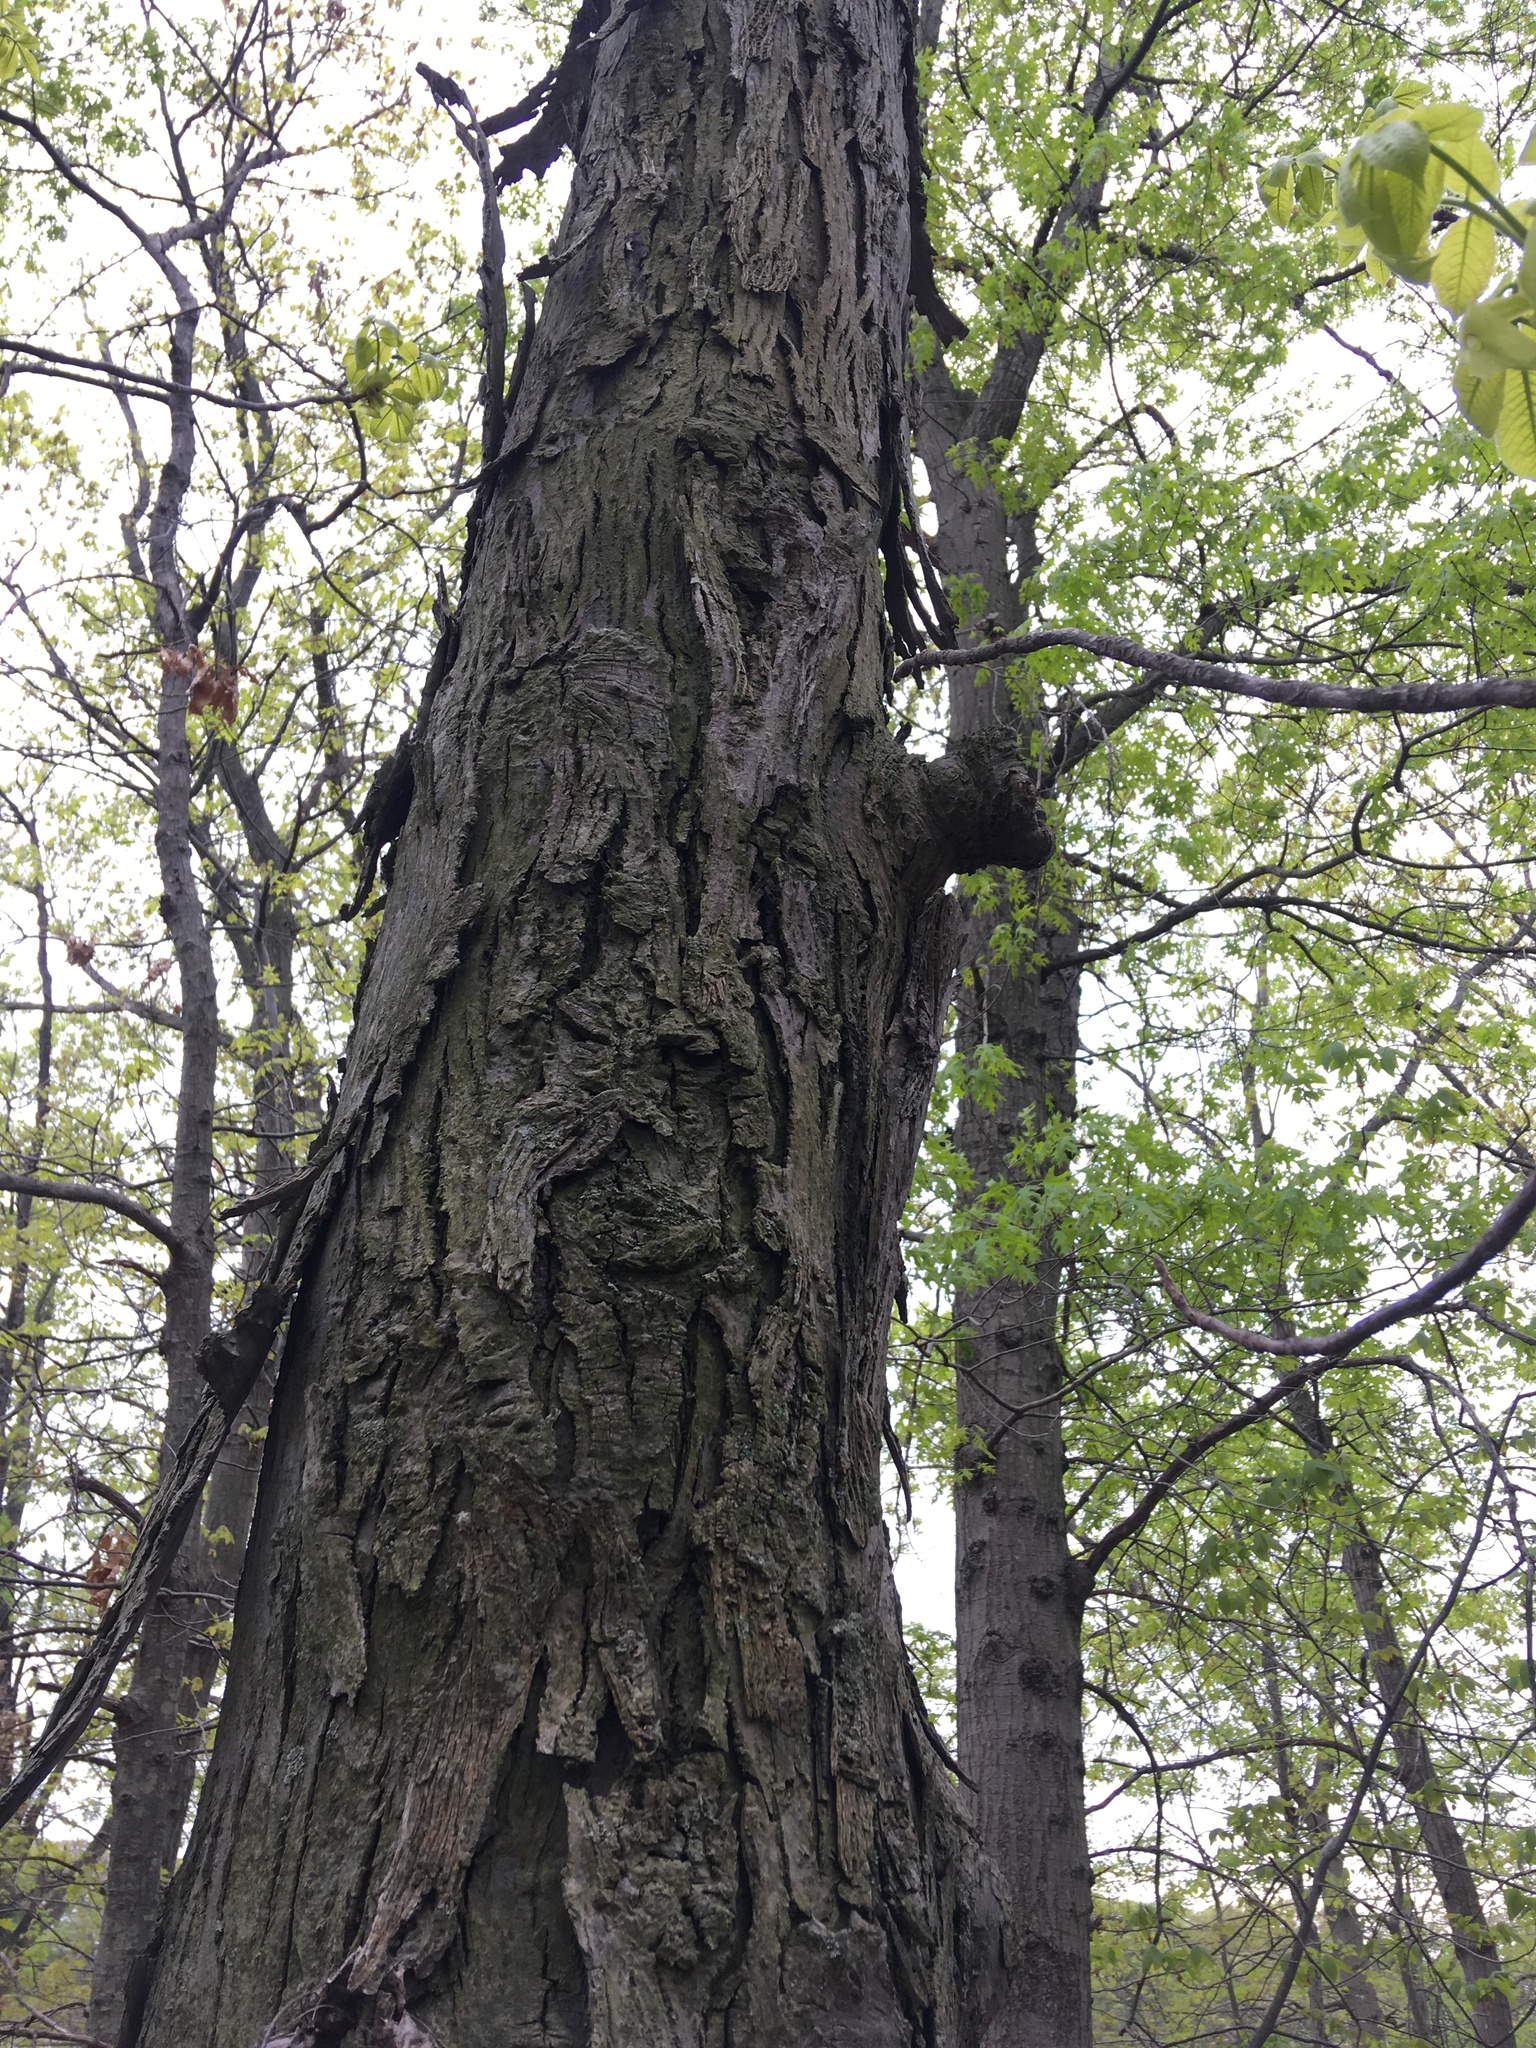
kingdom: Plantae
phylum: Tracheophyta
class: Magnoliopsida
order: Fagales
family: Juglandaceae
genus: Carya
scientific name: Carya ovata
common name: Shagbark hickory
